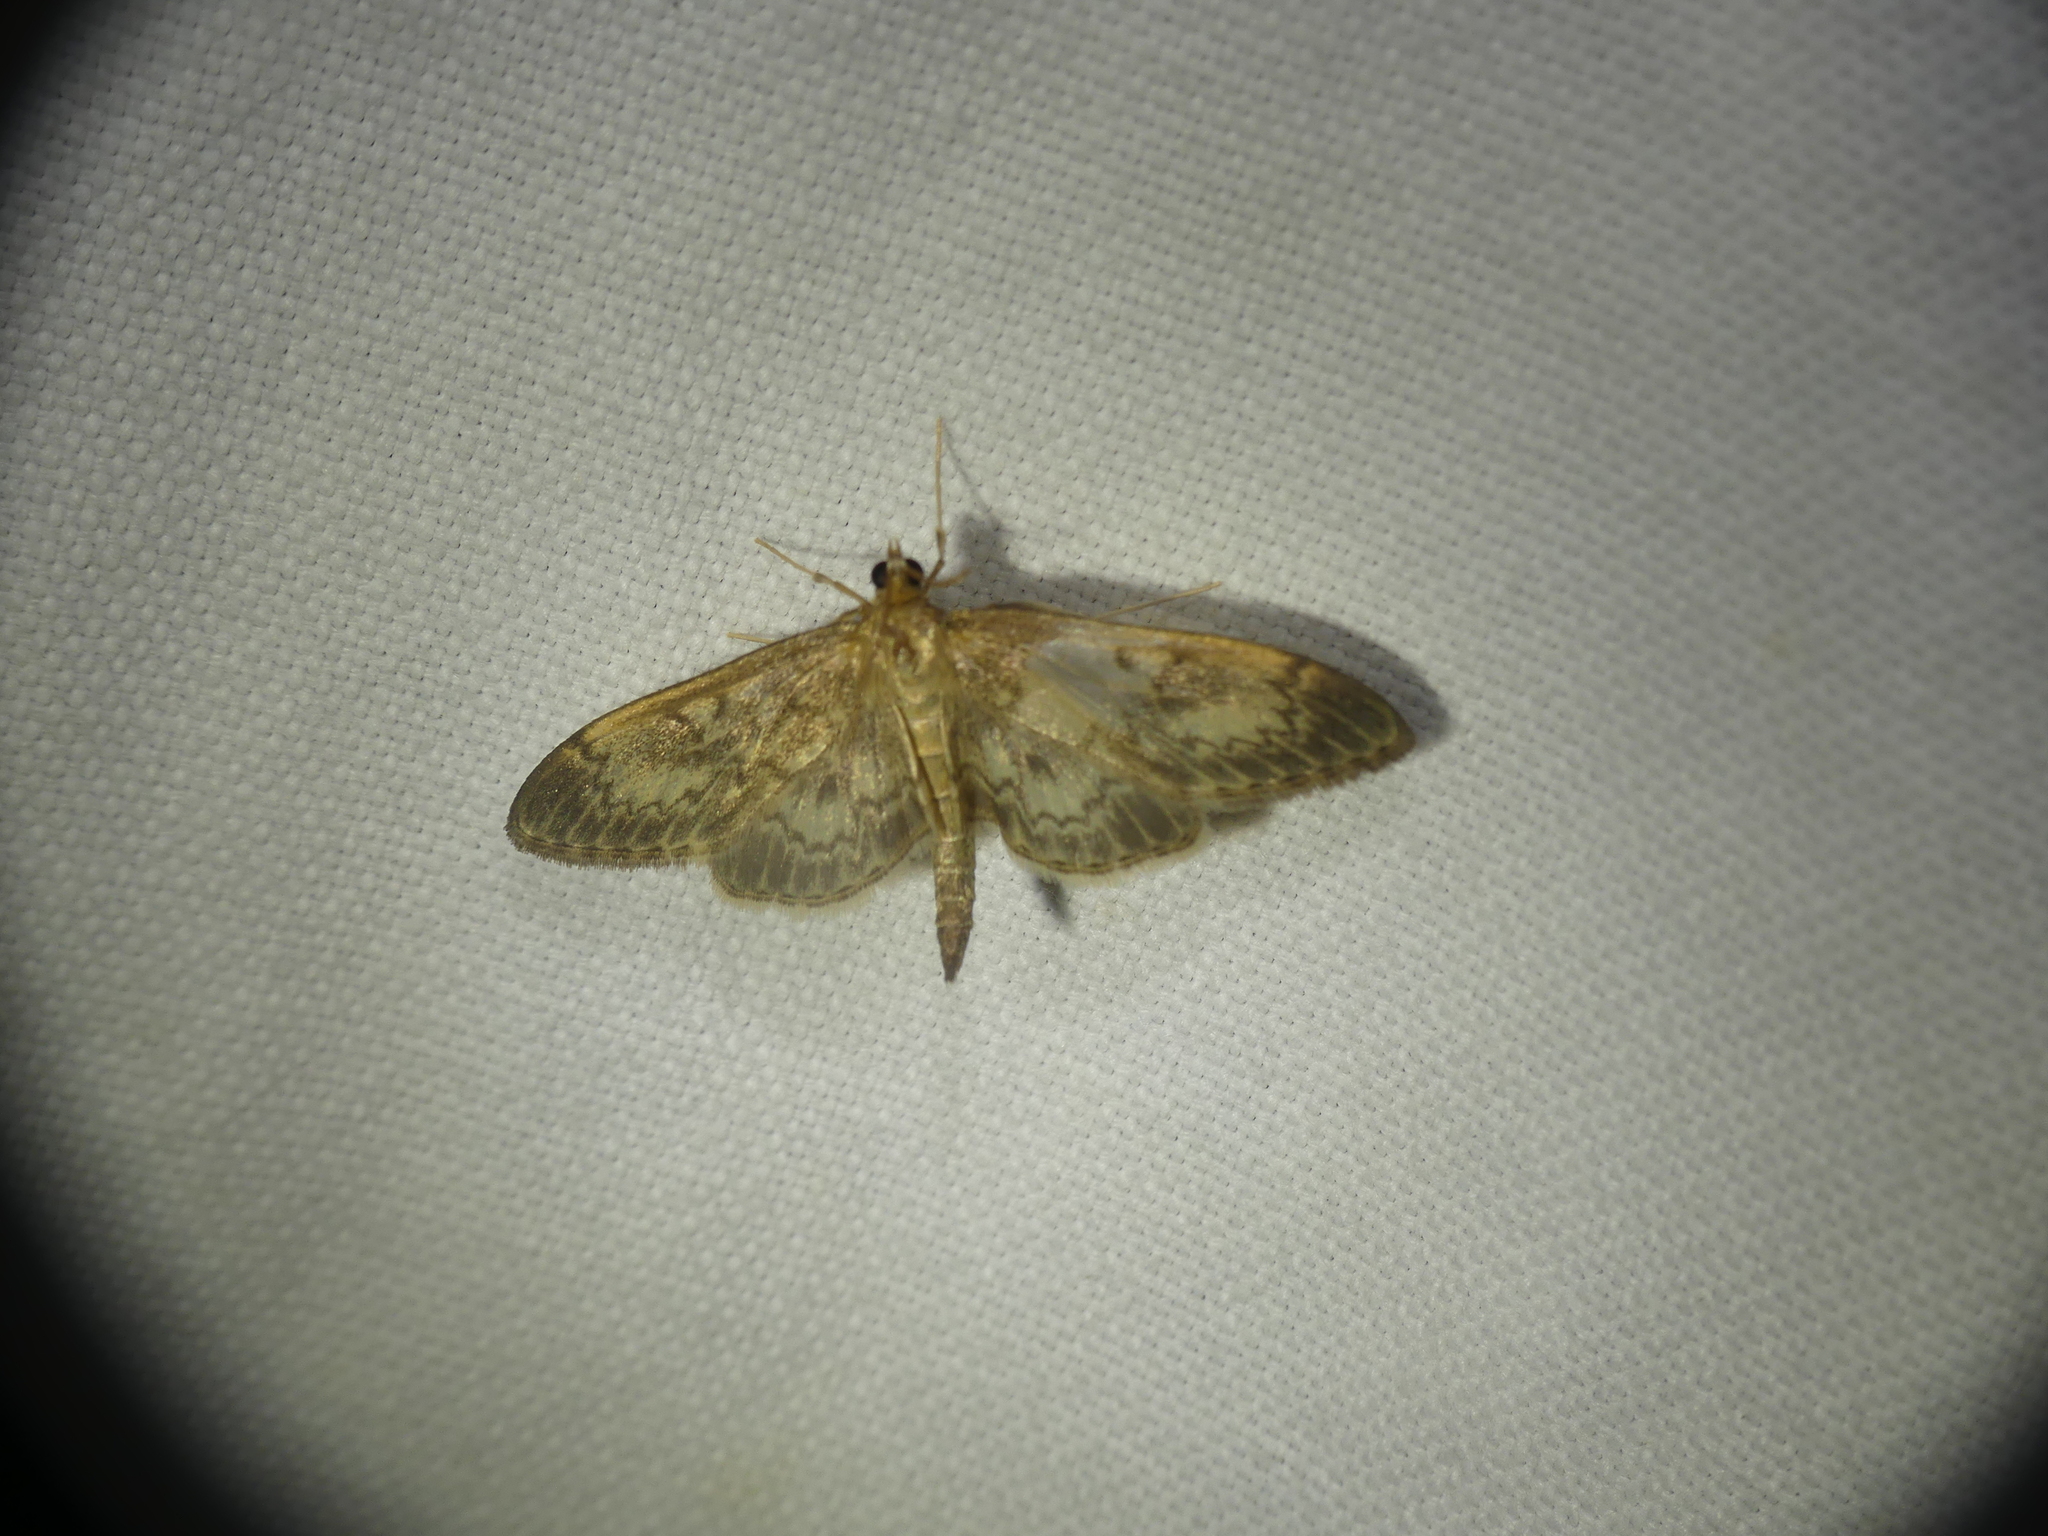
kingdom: Animalia
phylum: Arthropoda
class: Insecta
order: Lepidoptera
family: Crambidae
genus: Anania
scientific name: Anania lancealis
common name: Long-winged pearl
